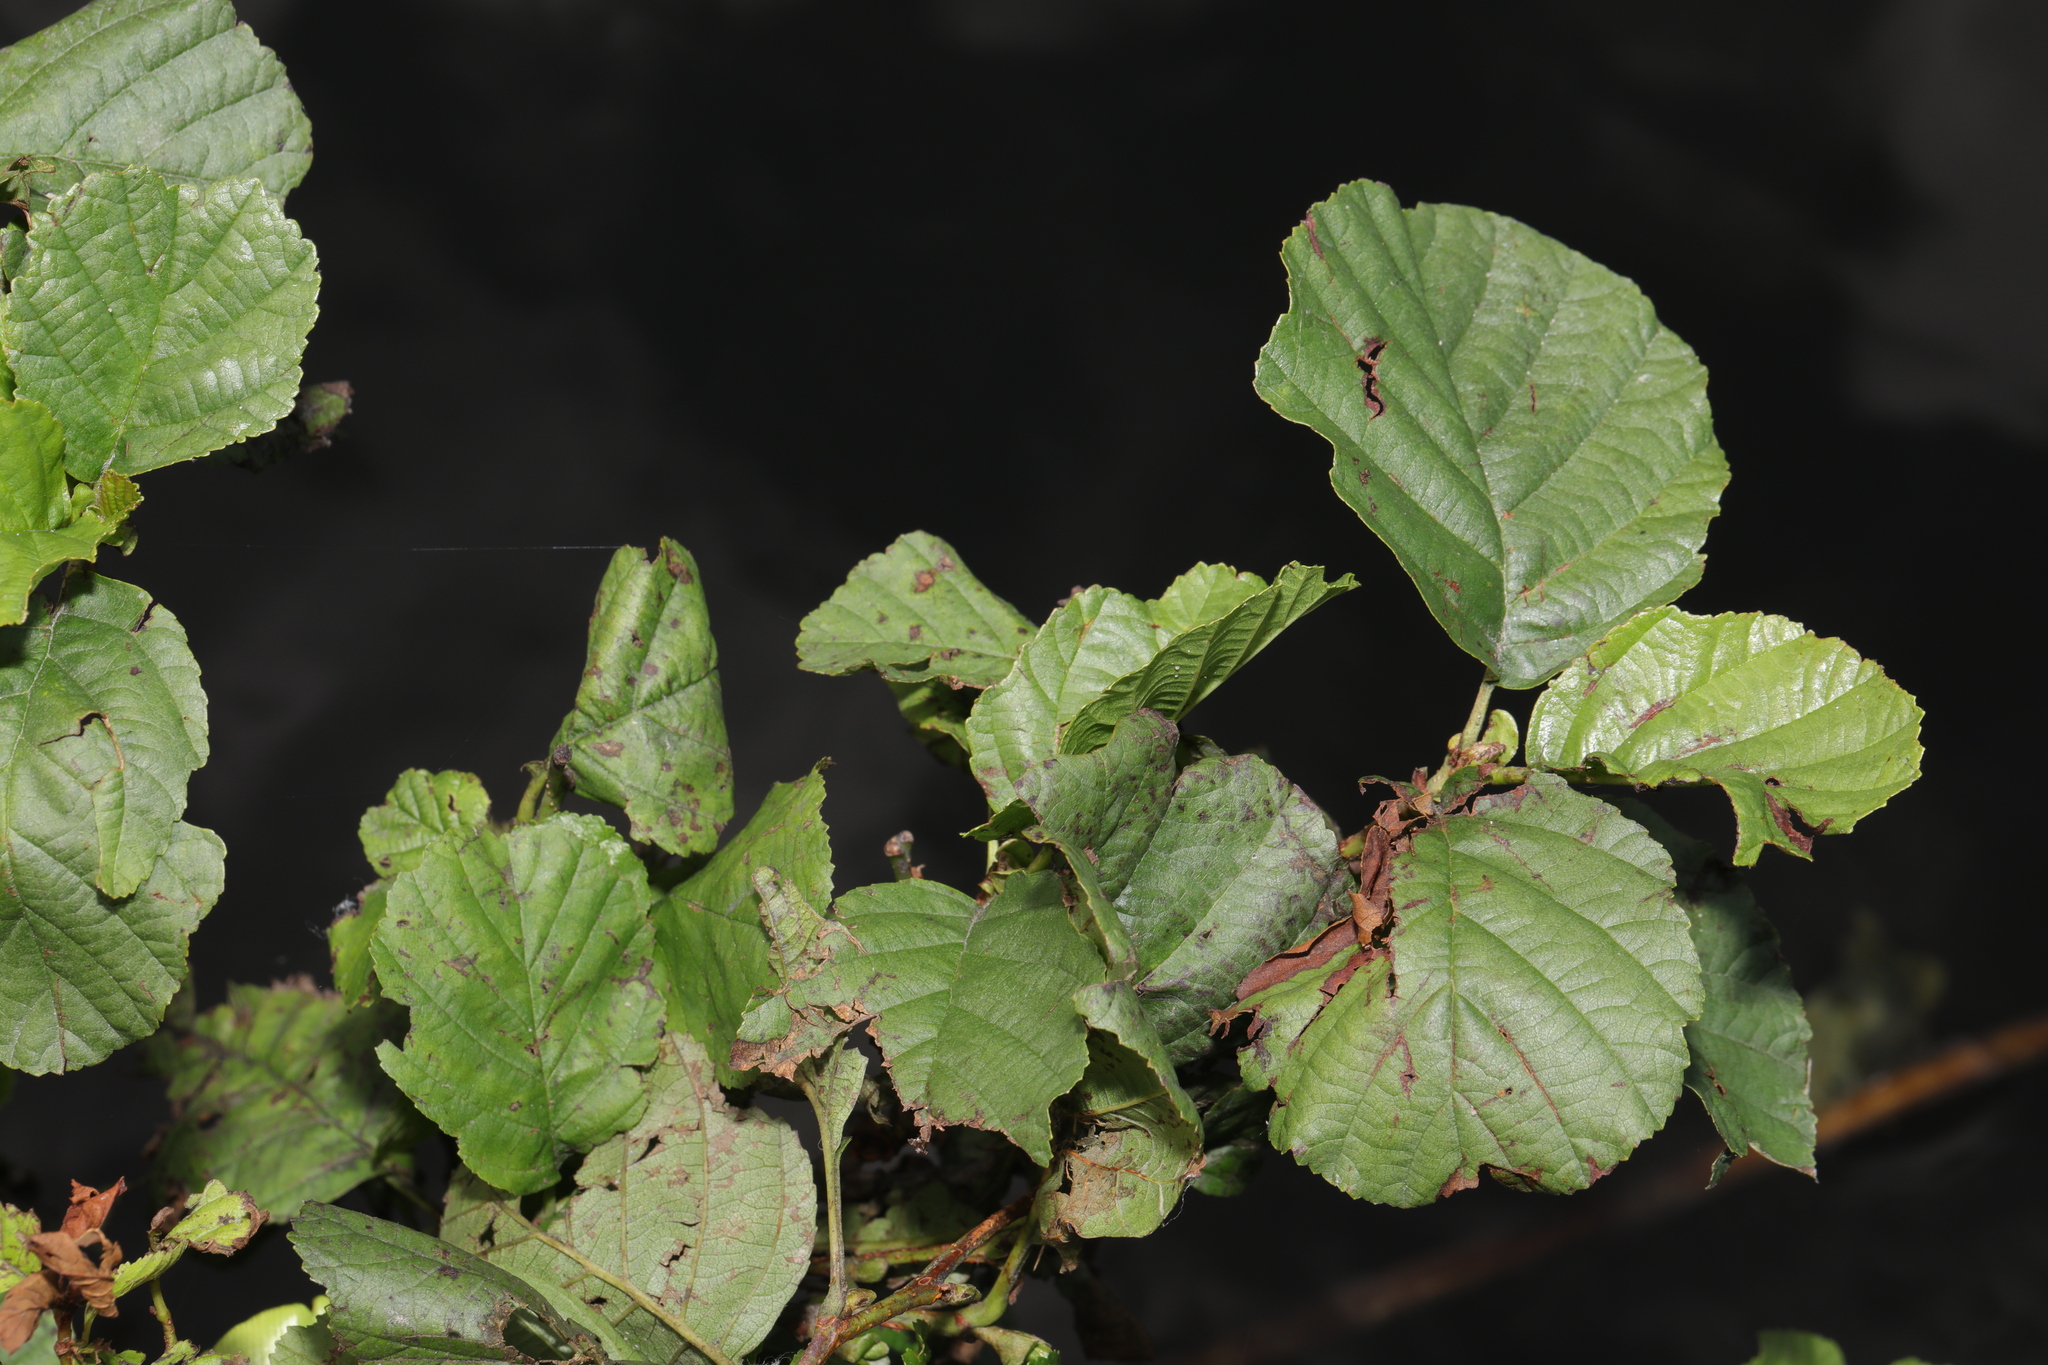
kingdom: Plantae
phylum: Tracheophyta
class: Magnoliopsida
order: Fagales
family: Betulaceae
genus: Alnus
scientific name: Alnus glutinosa
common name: Black alder
